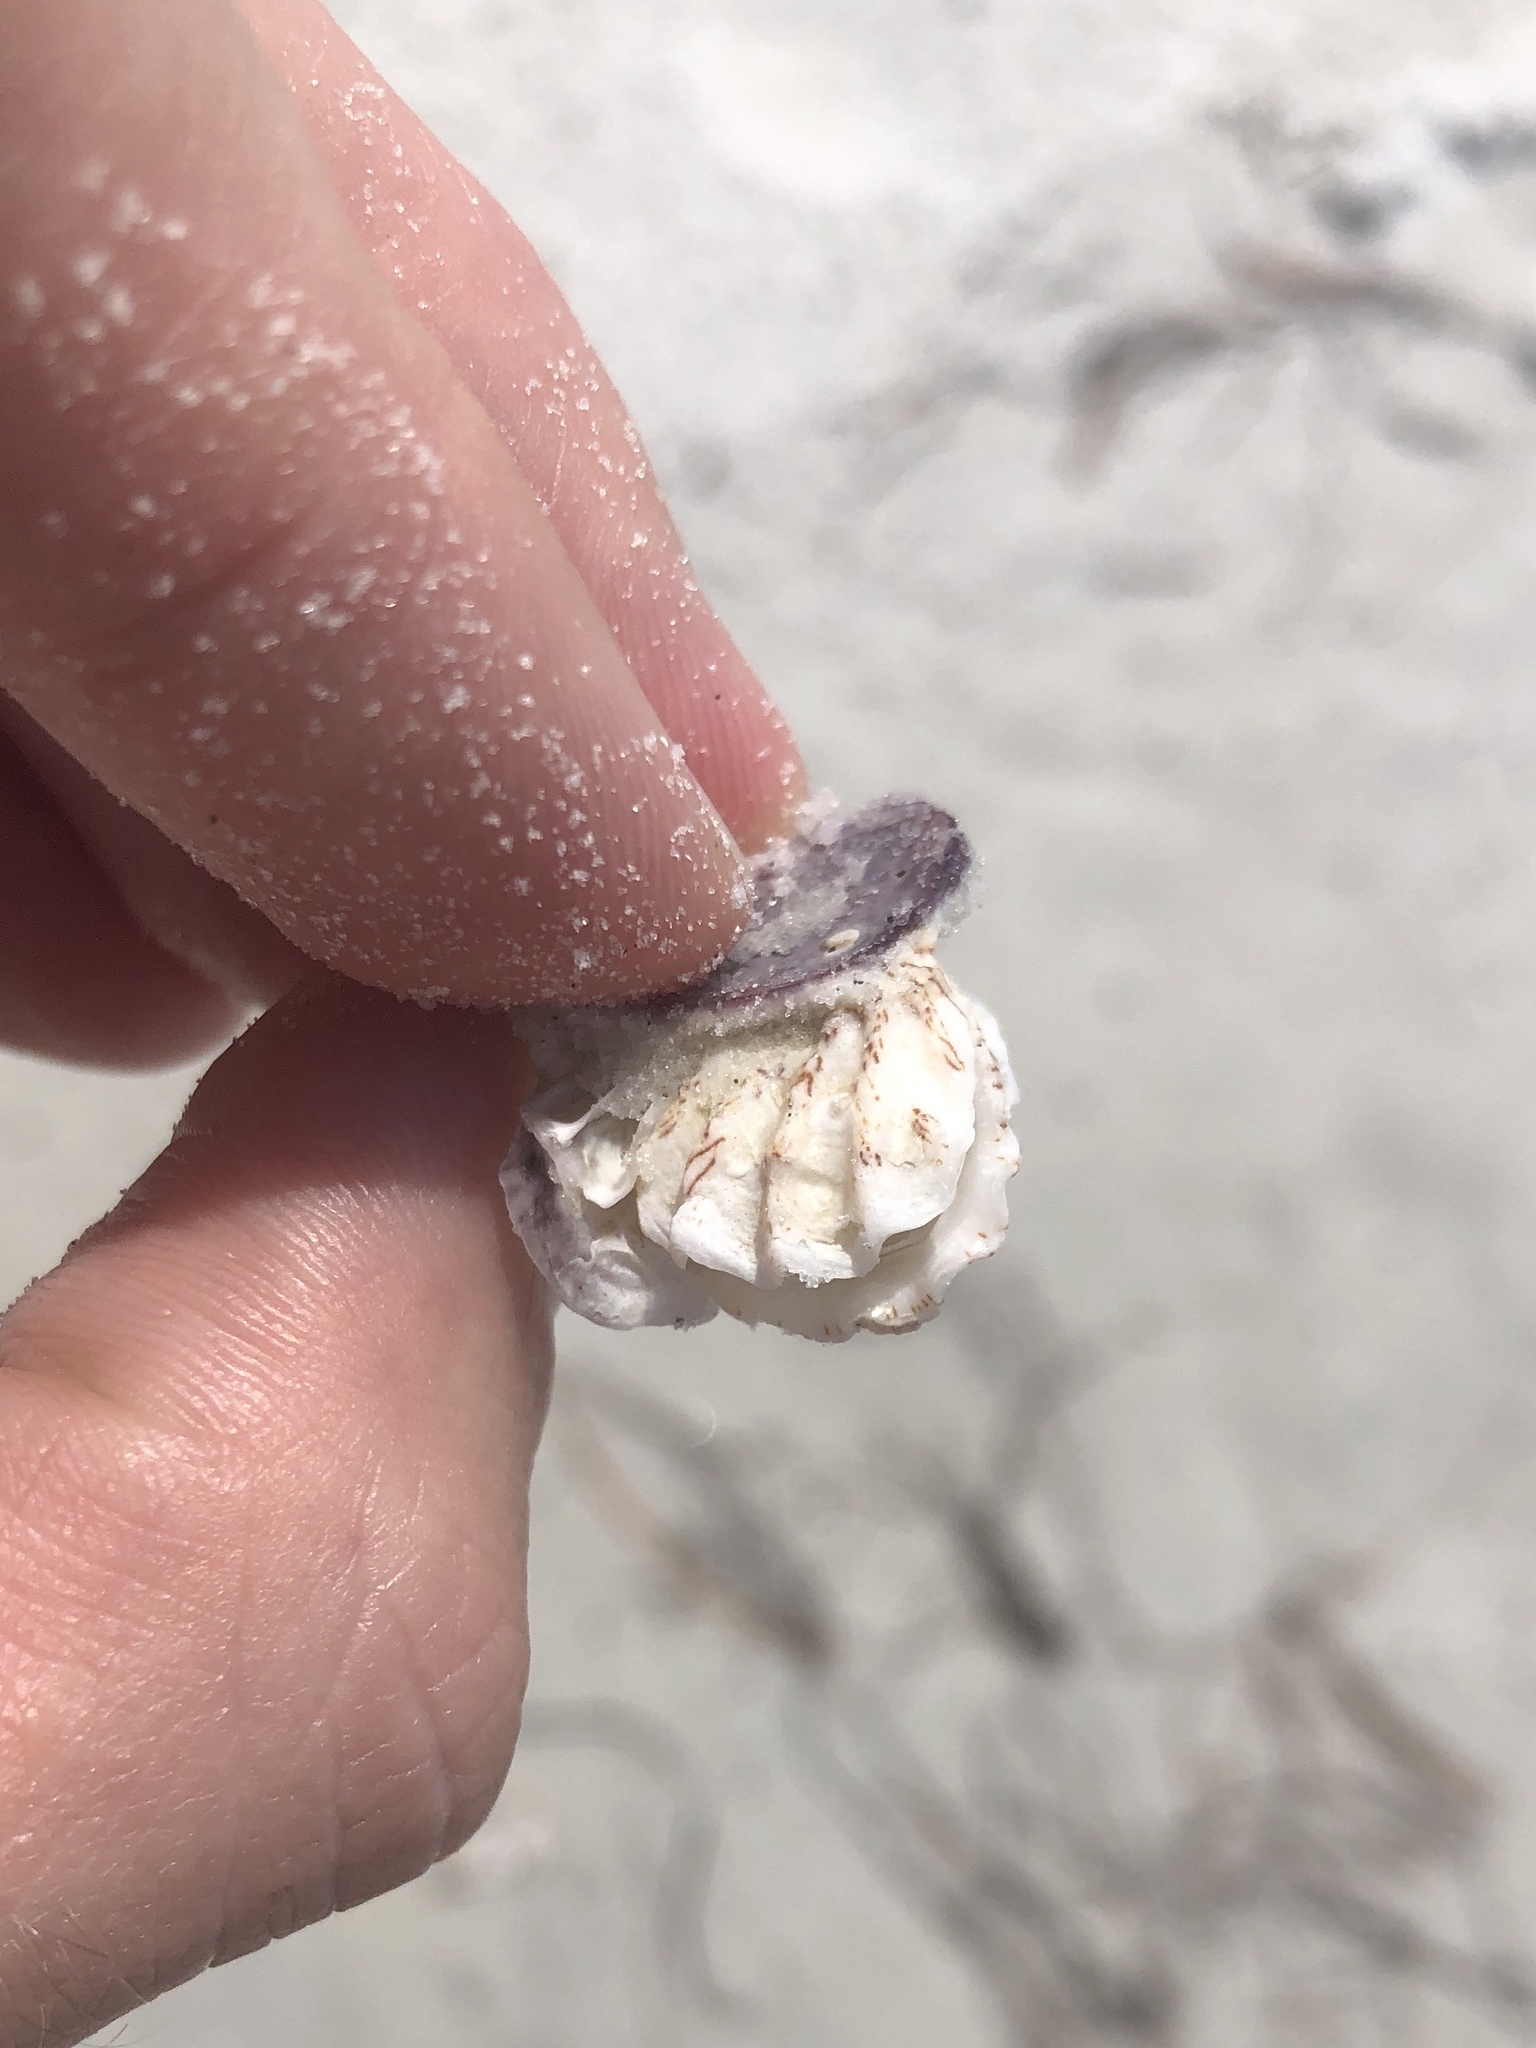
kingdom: Animalia
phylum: Mollusca
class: Bivalvia
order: Pectinida
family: Plicatulidae
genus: Plicatula
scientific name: Plicatula gibbosa
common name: Atlantic kitten's paw
